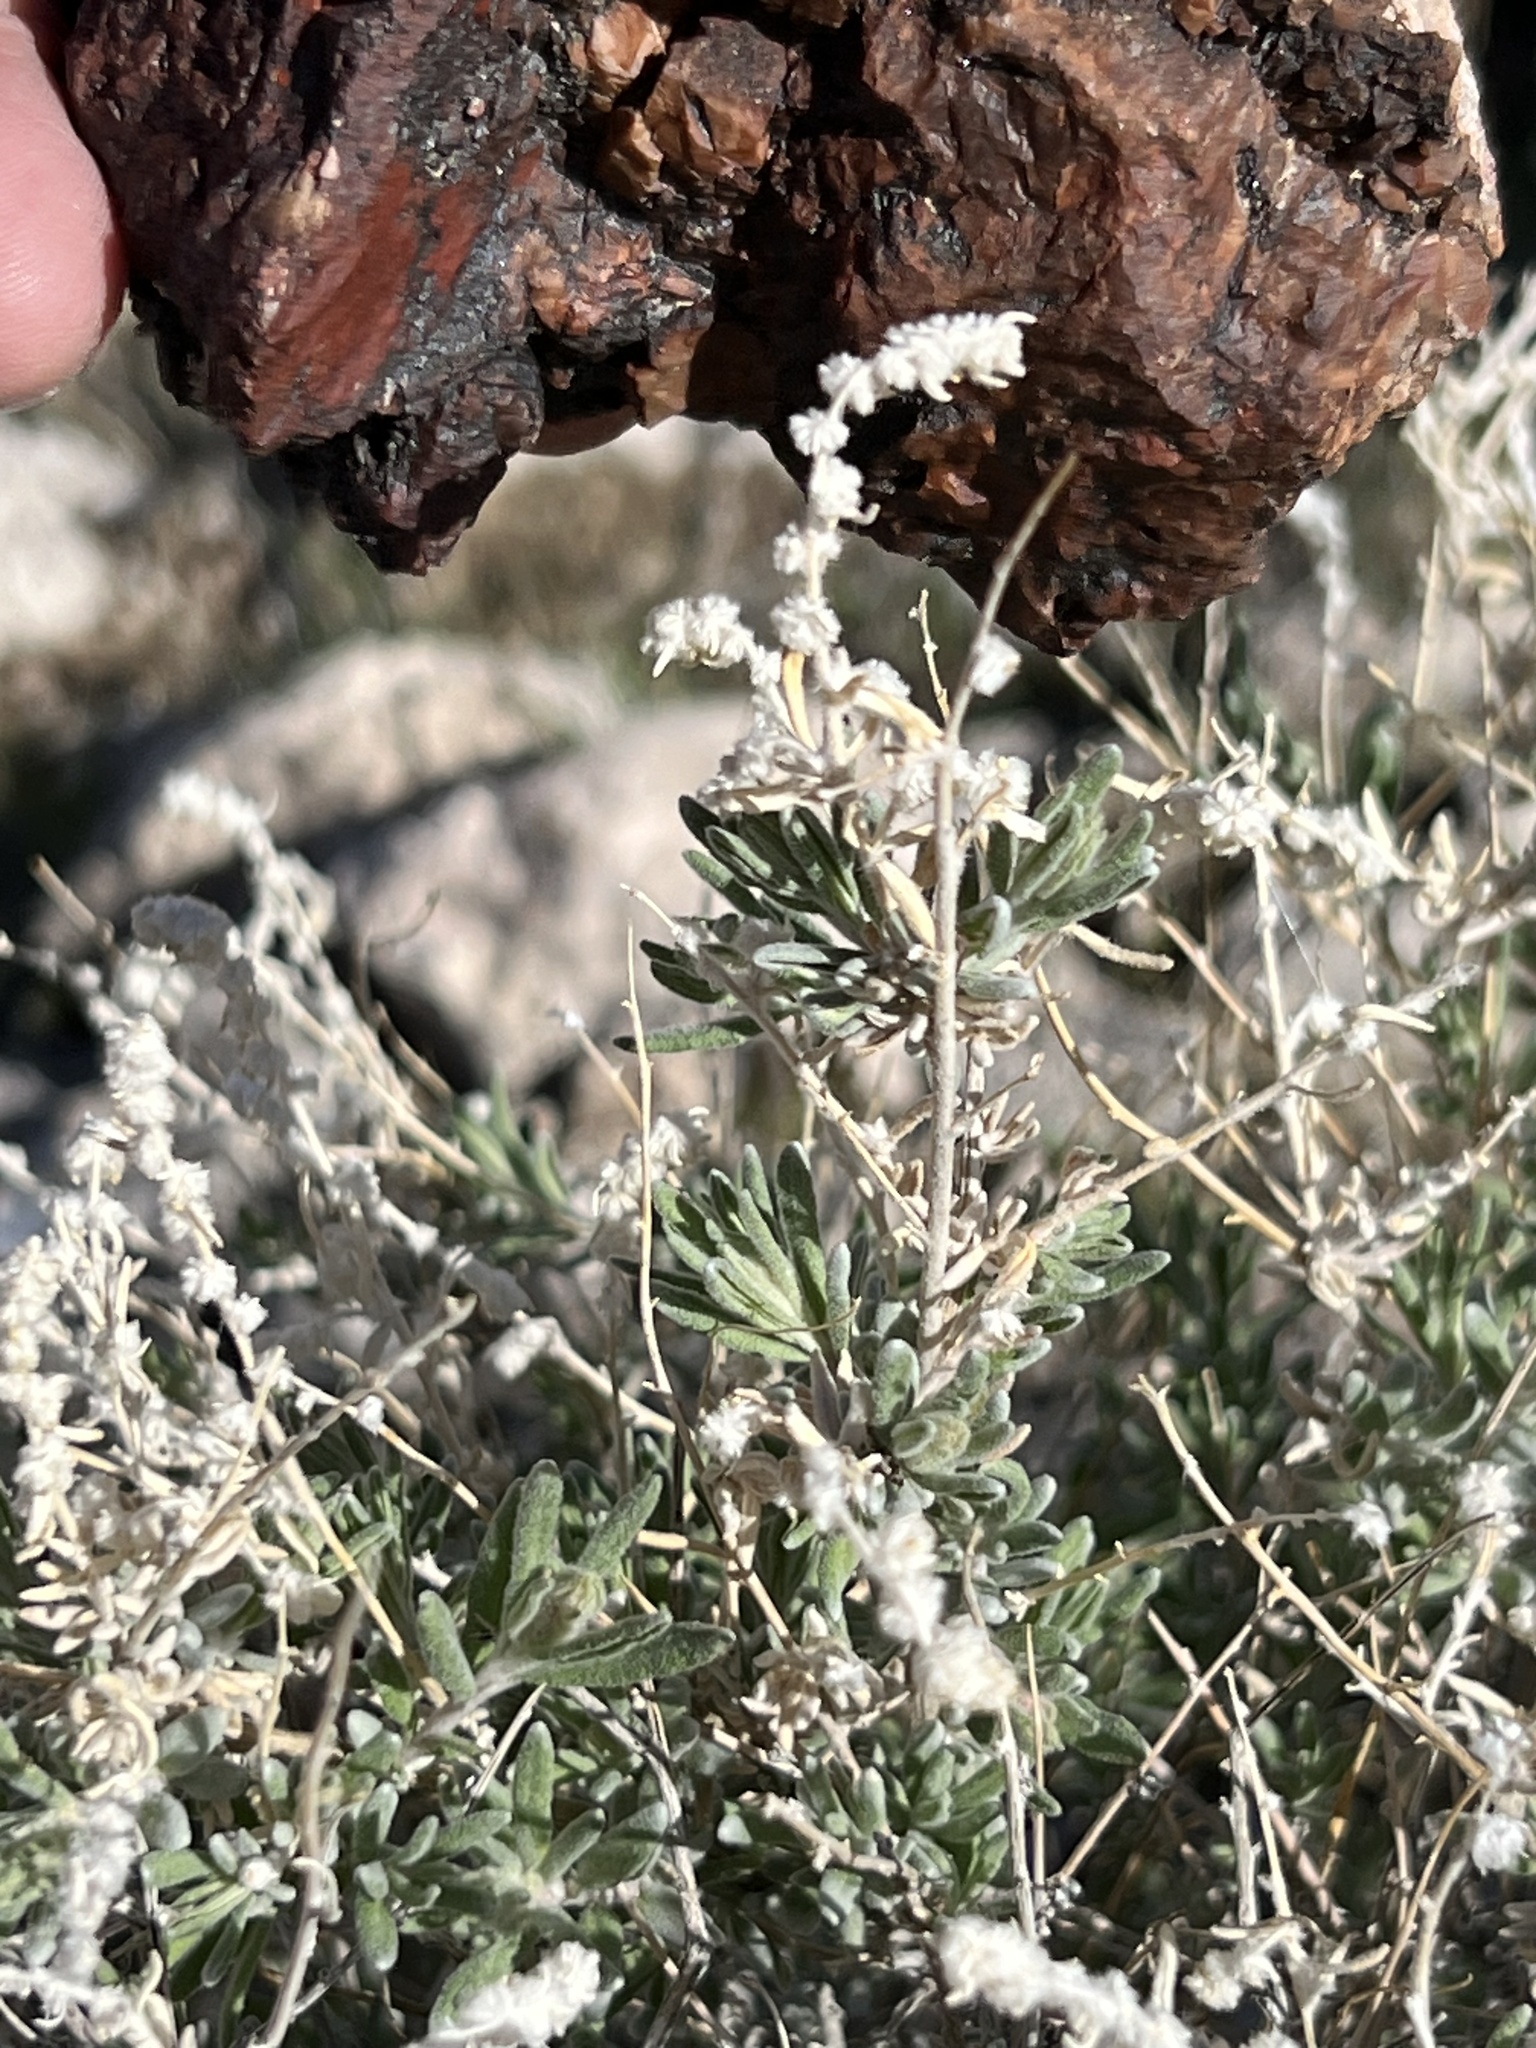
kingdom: Plantae
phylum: Tracheophyta
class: Magnoliopsida
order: Caryophyllales
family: Amaranthaceae
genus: Krascheninnikovia
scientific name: Krascheninnikovia lanata
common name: Winterfat
